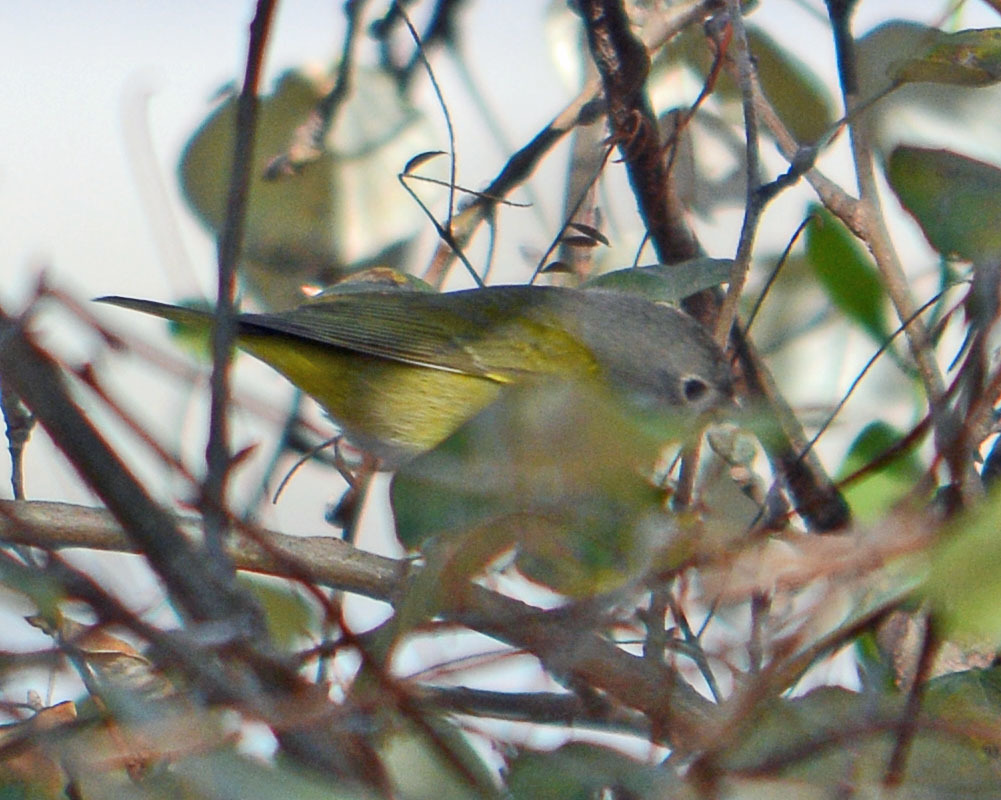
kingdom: Animalia
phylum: Chordata
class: Aves
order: Passeriformes
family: Parulidae
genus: Leiothlypis
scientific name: Leiothlypis ruficapilla
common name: Nashville warbler
